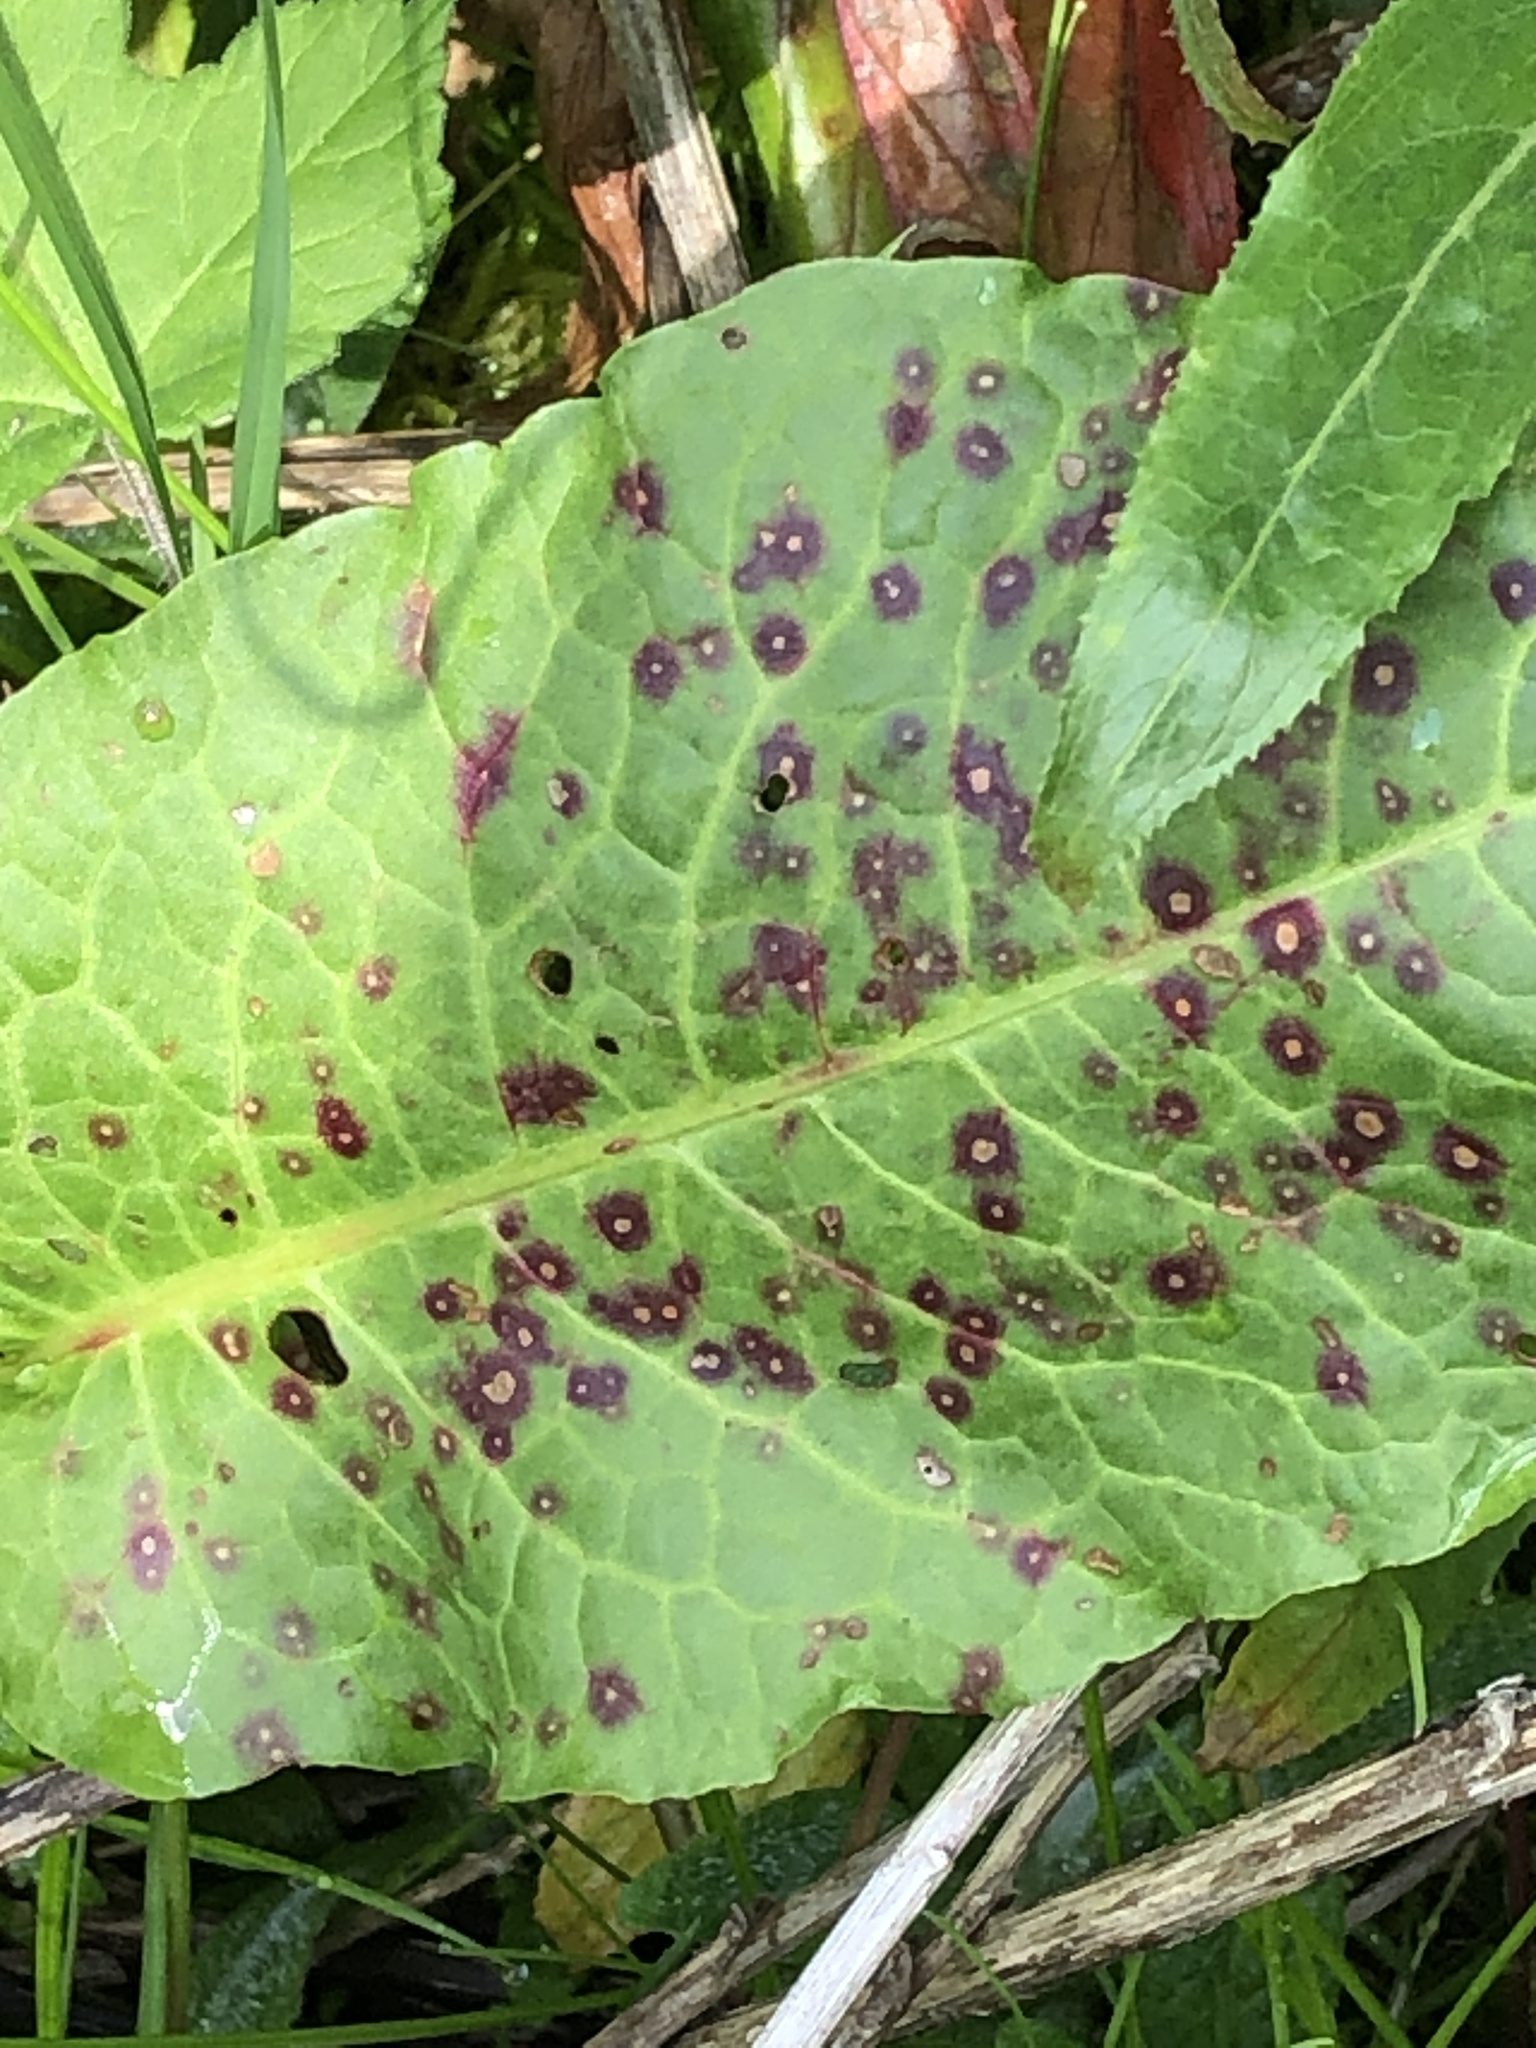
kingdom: Fungi
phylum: Ascomycota
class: Dothideomycetes
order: Mycosphaerellales
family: Mycosphaerellaceae
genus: Ramularia
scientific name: Ramularia rubella
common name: Red dock spot
